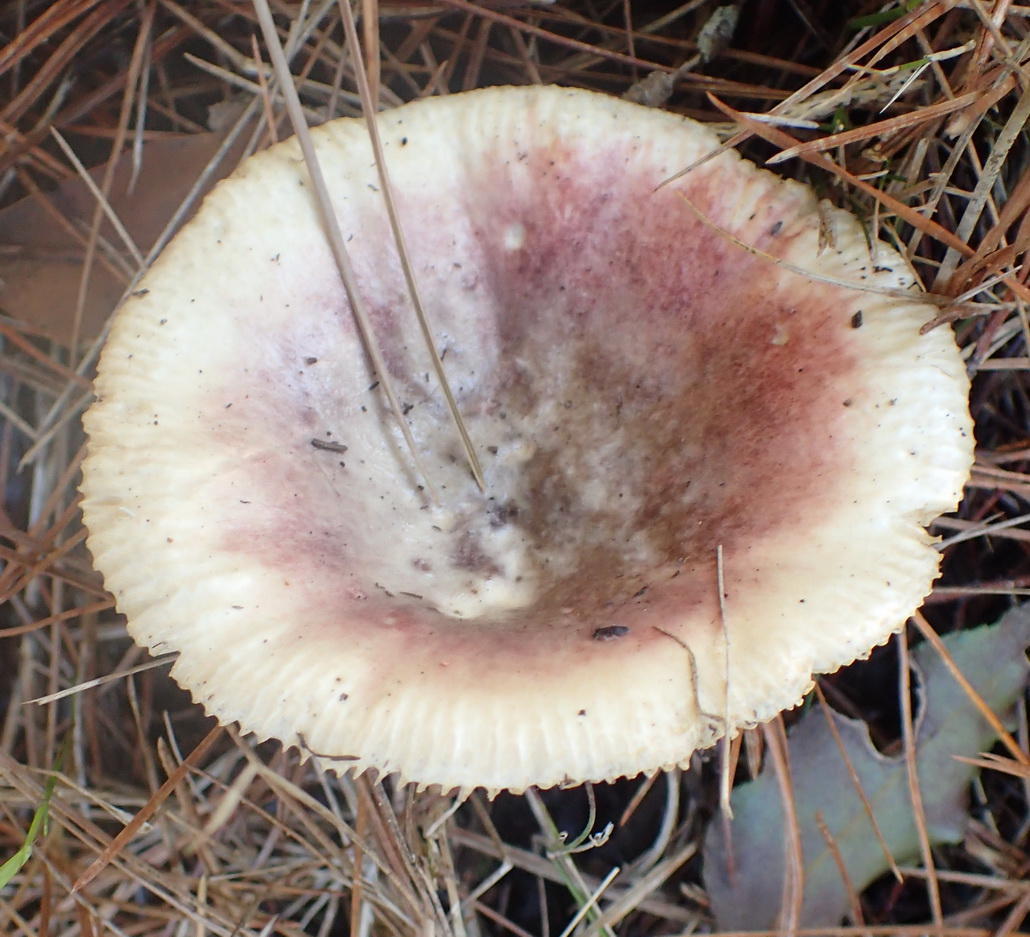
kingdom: Fungi
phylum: Basidiomycota
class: Agaricomycetes
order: Russulales
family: Russulaceae
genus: Russula
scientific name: Russula sardonia
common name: Primrose brittlegill
